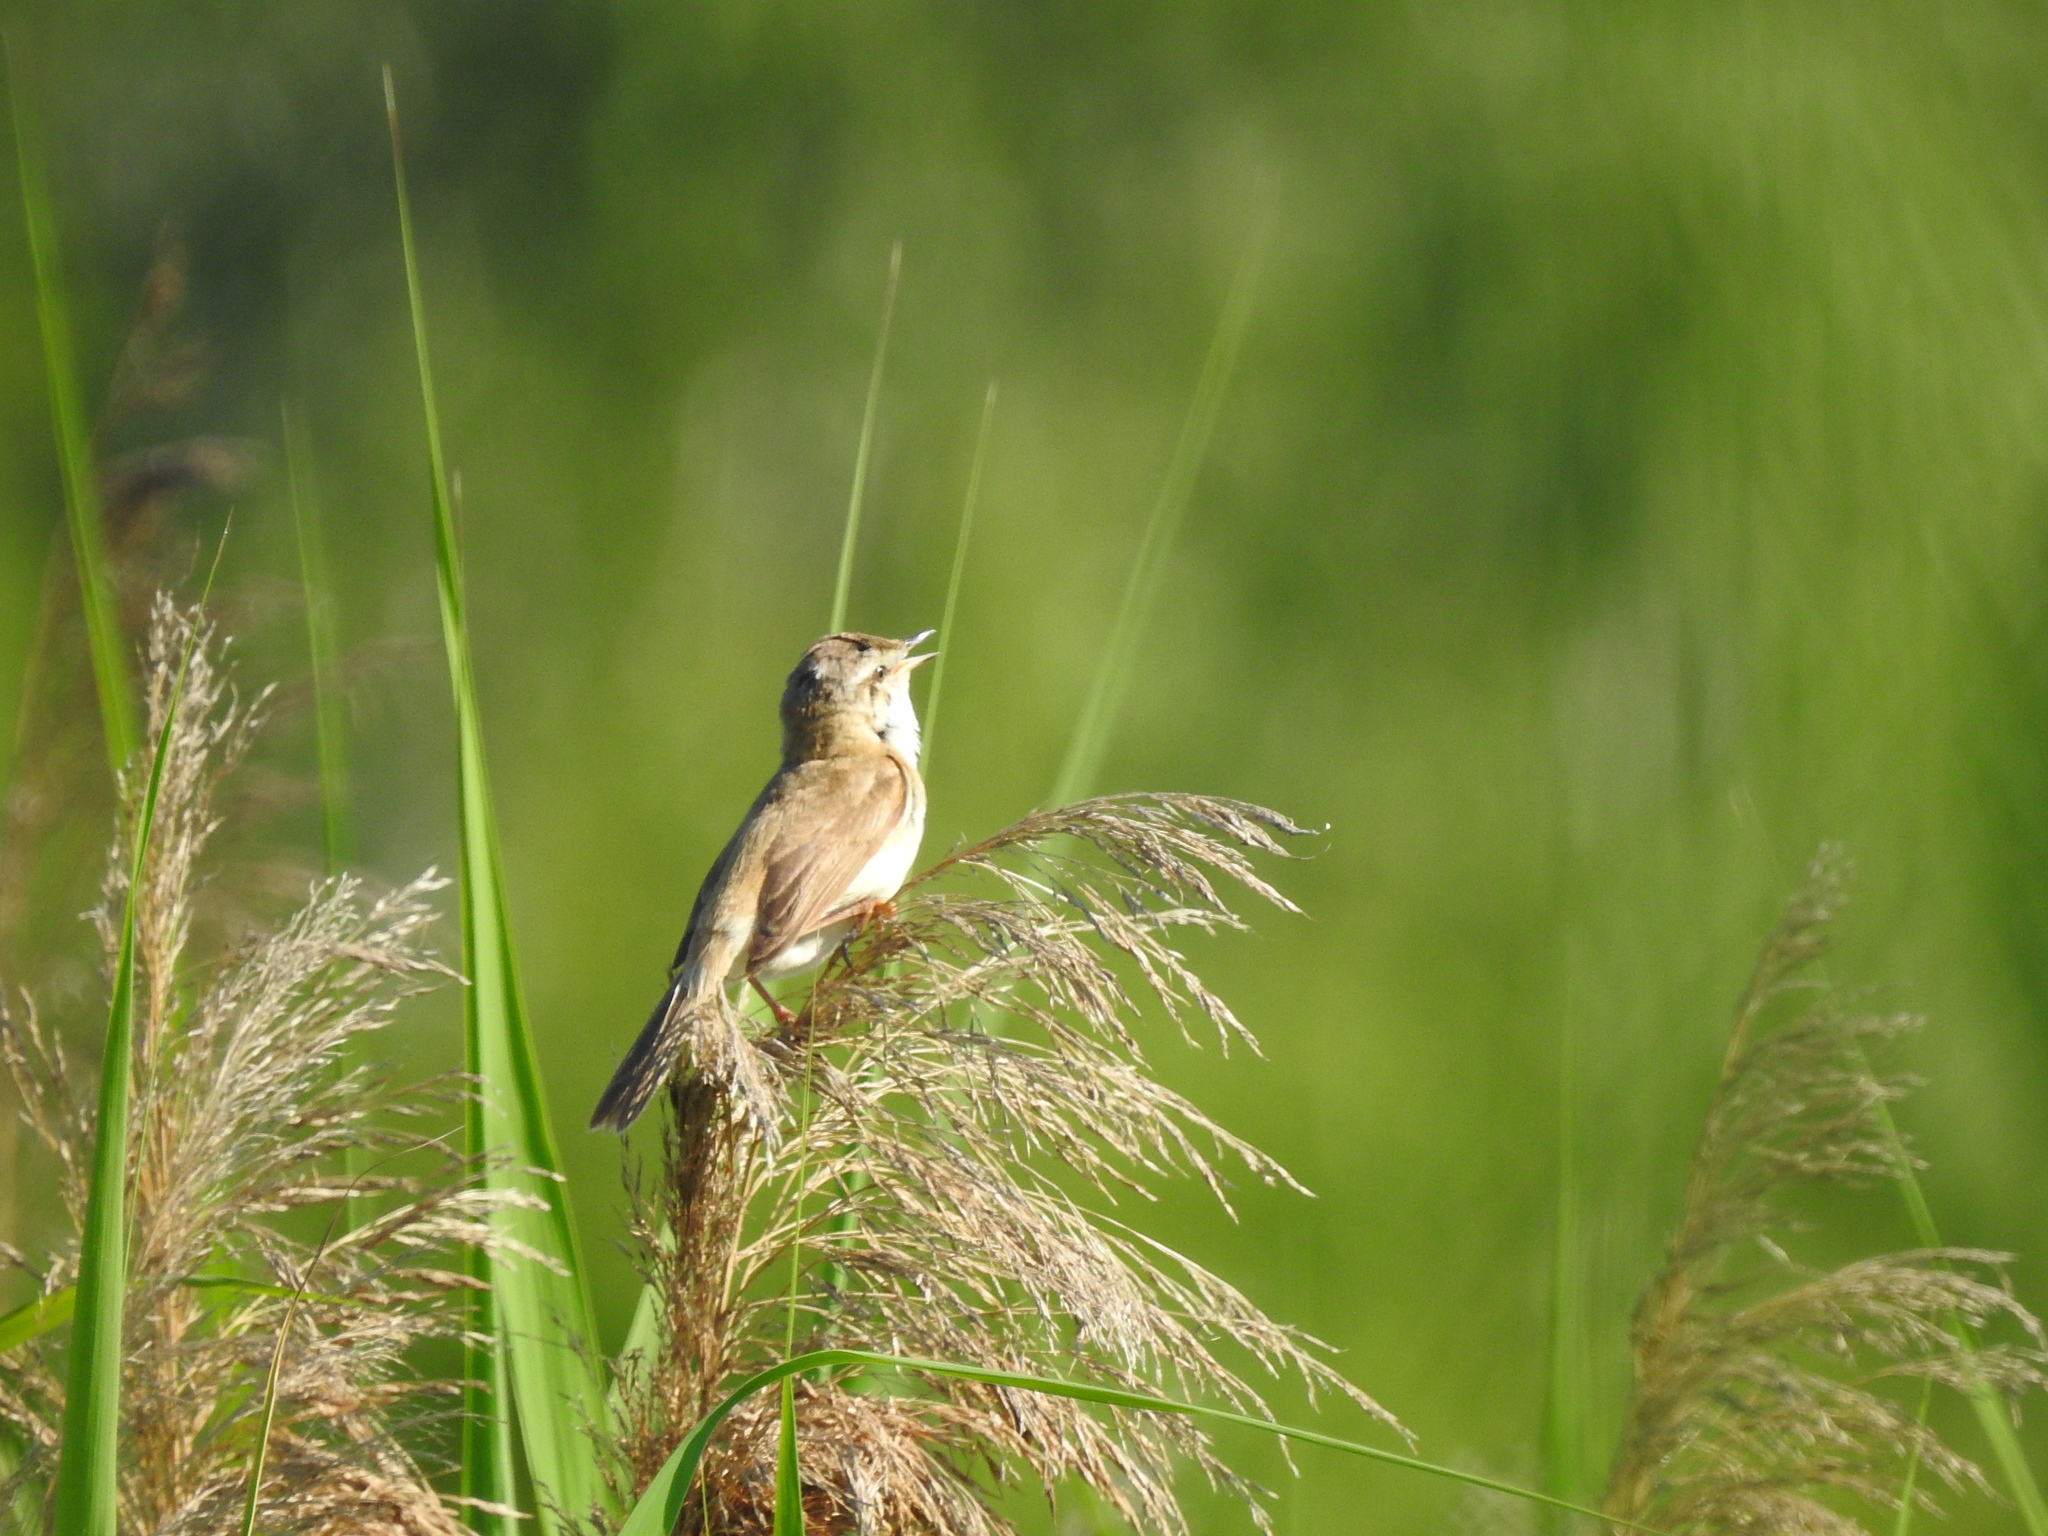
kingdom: Animalia
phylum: Chordata
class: Aves
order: Passeriformes
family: Acrocephalidae
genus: Acrocephalus
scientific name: Acrocephalus schoenobaenus
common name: Sedge warbler
